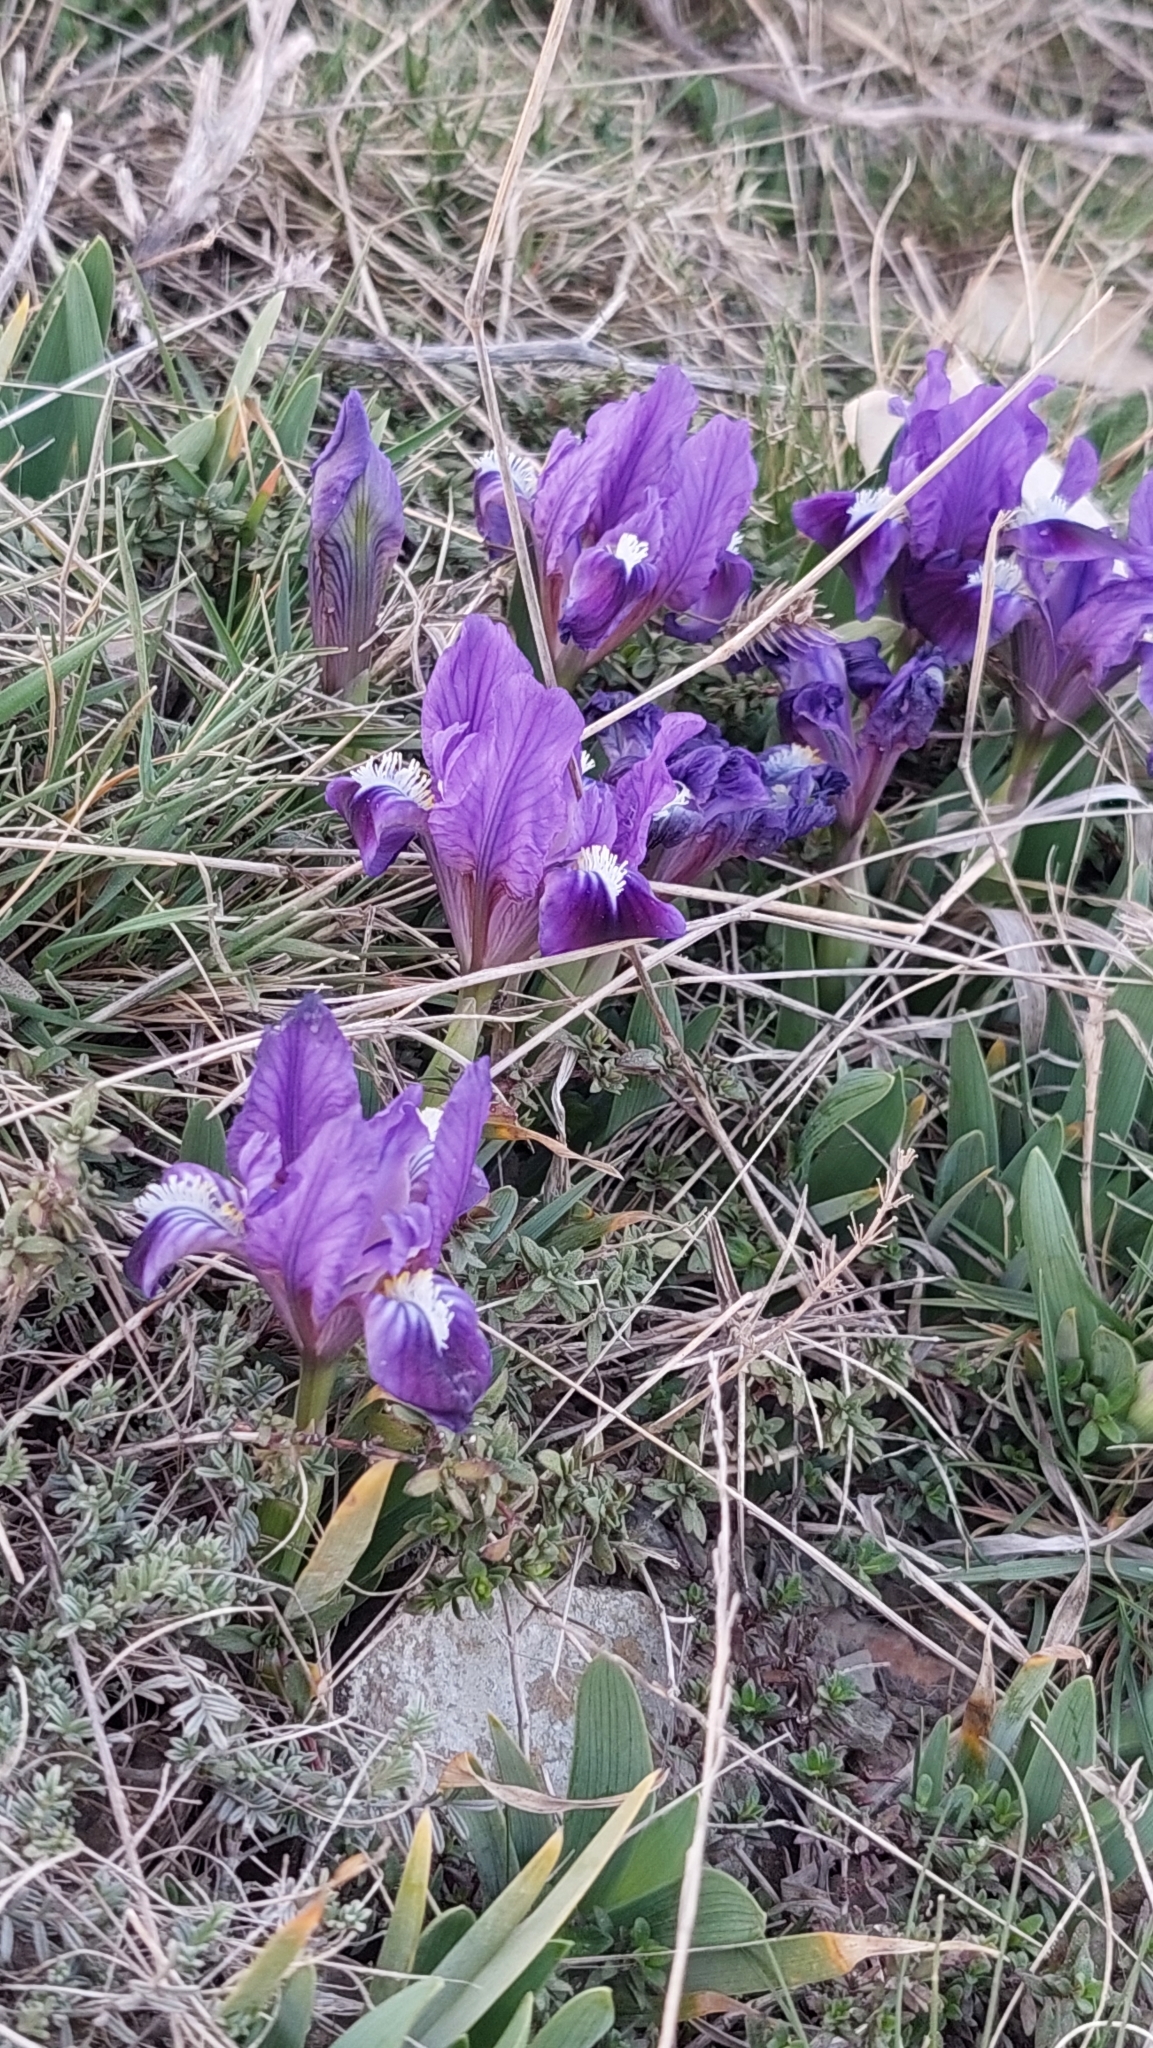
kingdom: Plantae
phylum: Tracheophyta
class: Liliopsida
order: Asparagales
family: Iridaceae
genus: Iris
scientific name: Iris pumila
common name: Dwarf iris
